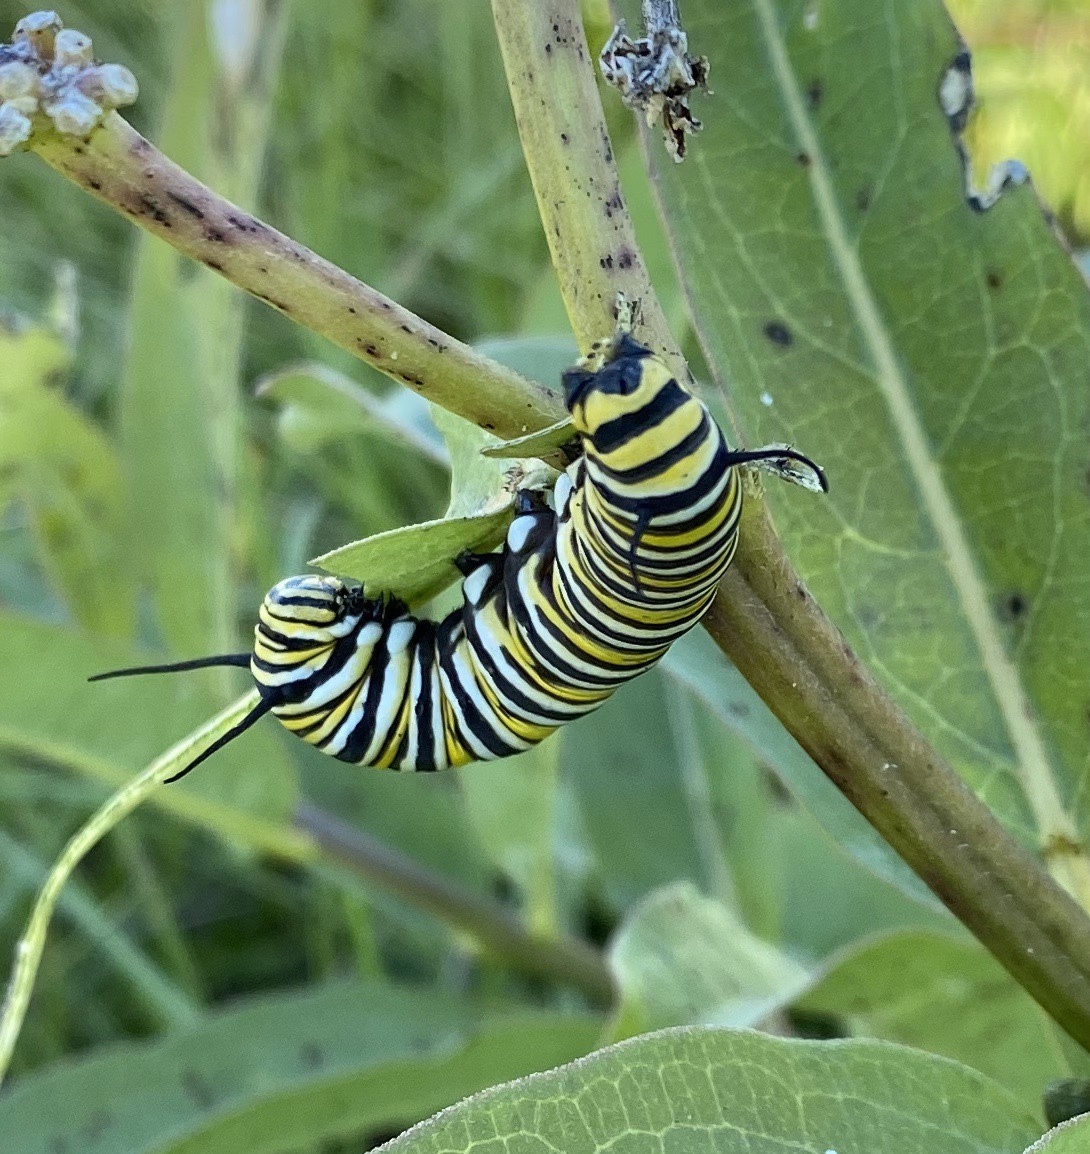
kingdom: Animalia
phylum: Arthropoda
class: Insecta
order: Lepidoptera
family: Nymphalidae
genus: Danaus
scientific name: Danaus plexippus
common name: Monarch
